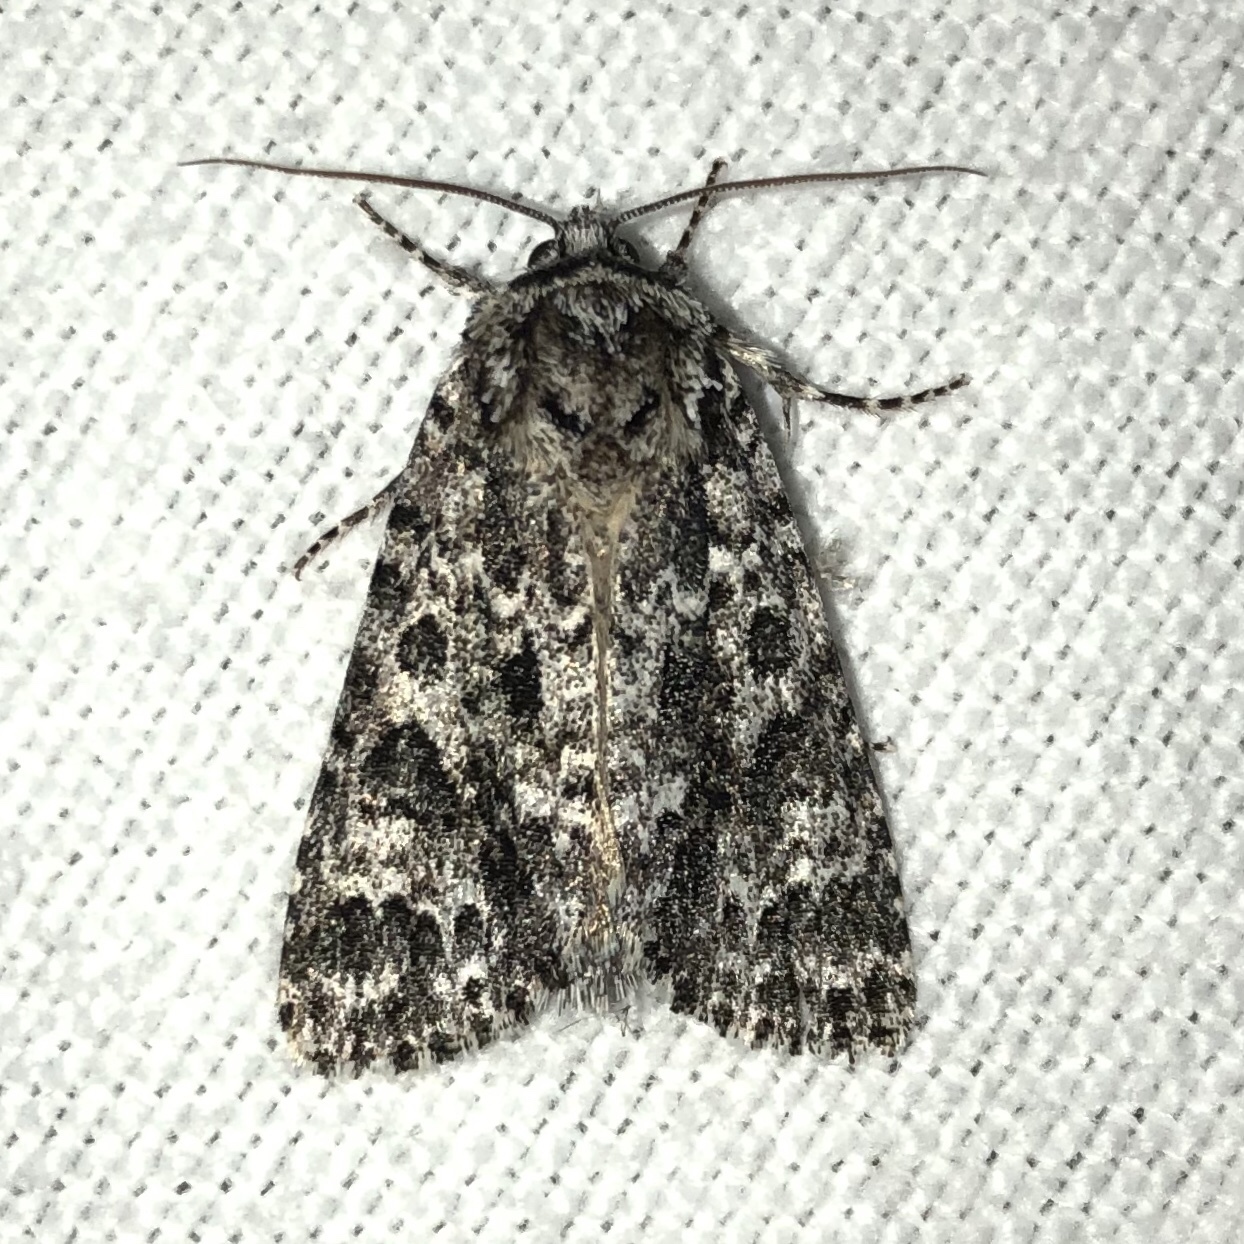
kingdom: Animalia
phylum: Arthropoda
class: Insecta
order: Lepidoptera
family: Noctuidae
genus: Acronicta
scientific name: Acronicta impressa
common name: Impressed dagger
